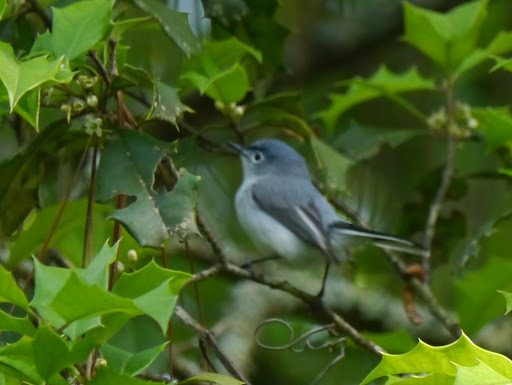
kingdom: Animalia
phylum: Chordata
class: Aves
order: Passeriformes
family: Polioptilidae
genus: Polioptila
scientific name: Polioptila caerulea
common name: Blue-gray gnatcatcher
